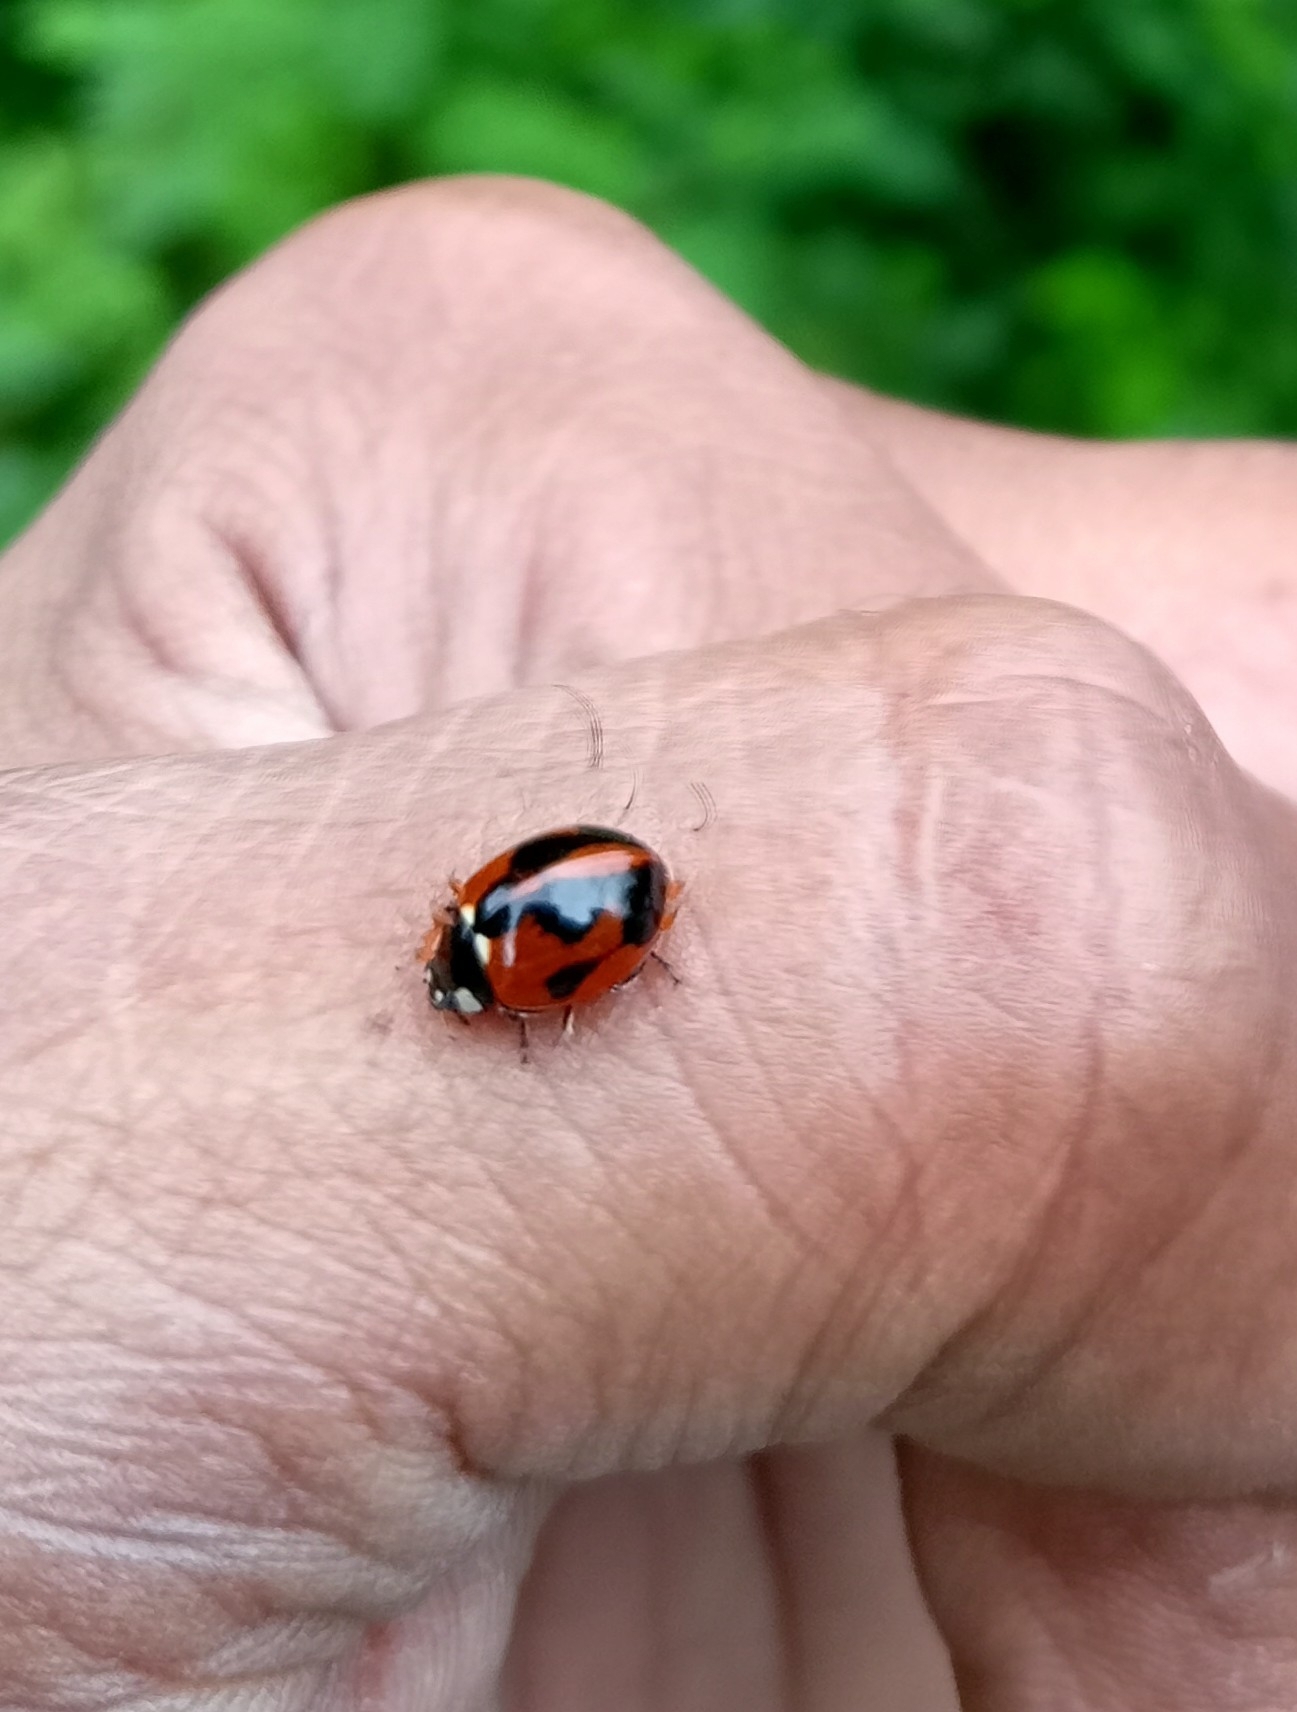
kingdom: Animalia
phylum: Arthropoda
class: Insecta
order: Coleoptera
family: Coccinellidae
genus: Coccinella
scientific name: Coccinella septempunctata
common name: Sevenspotted lady beetle
